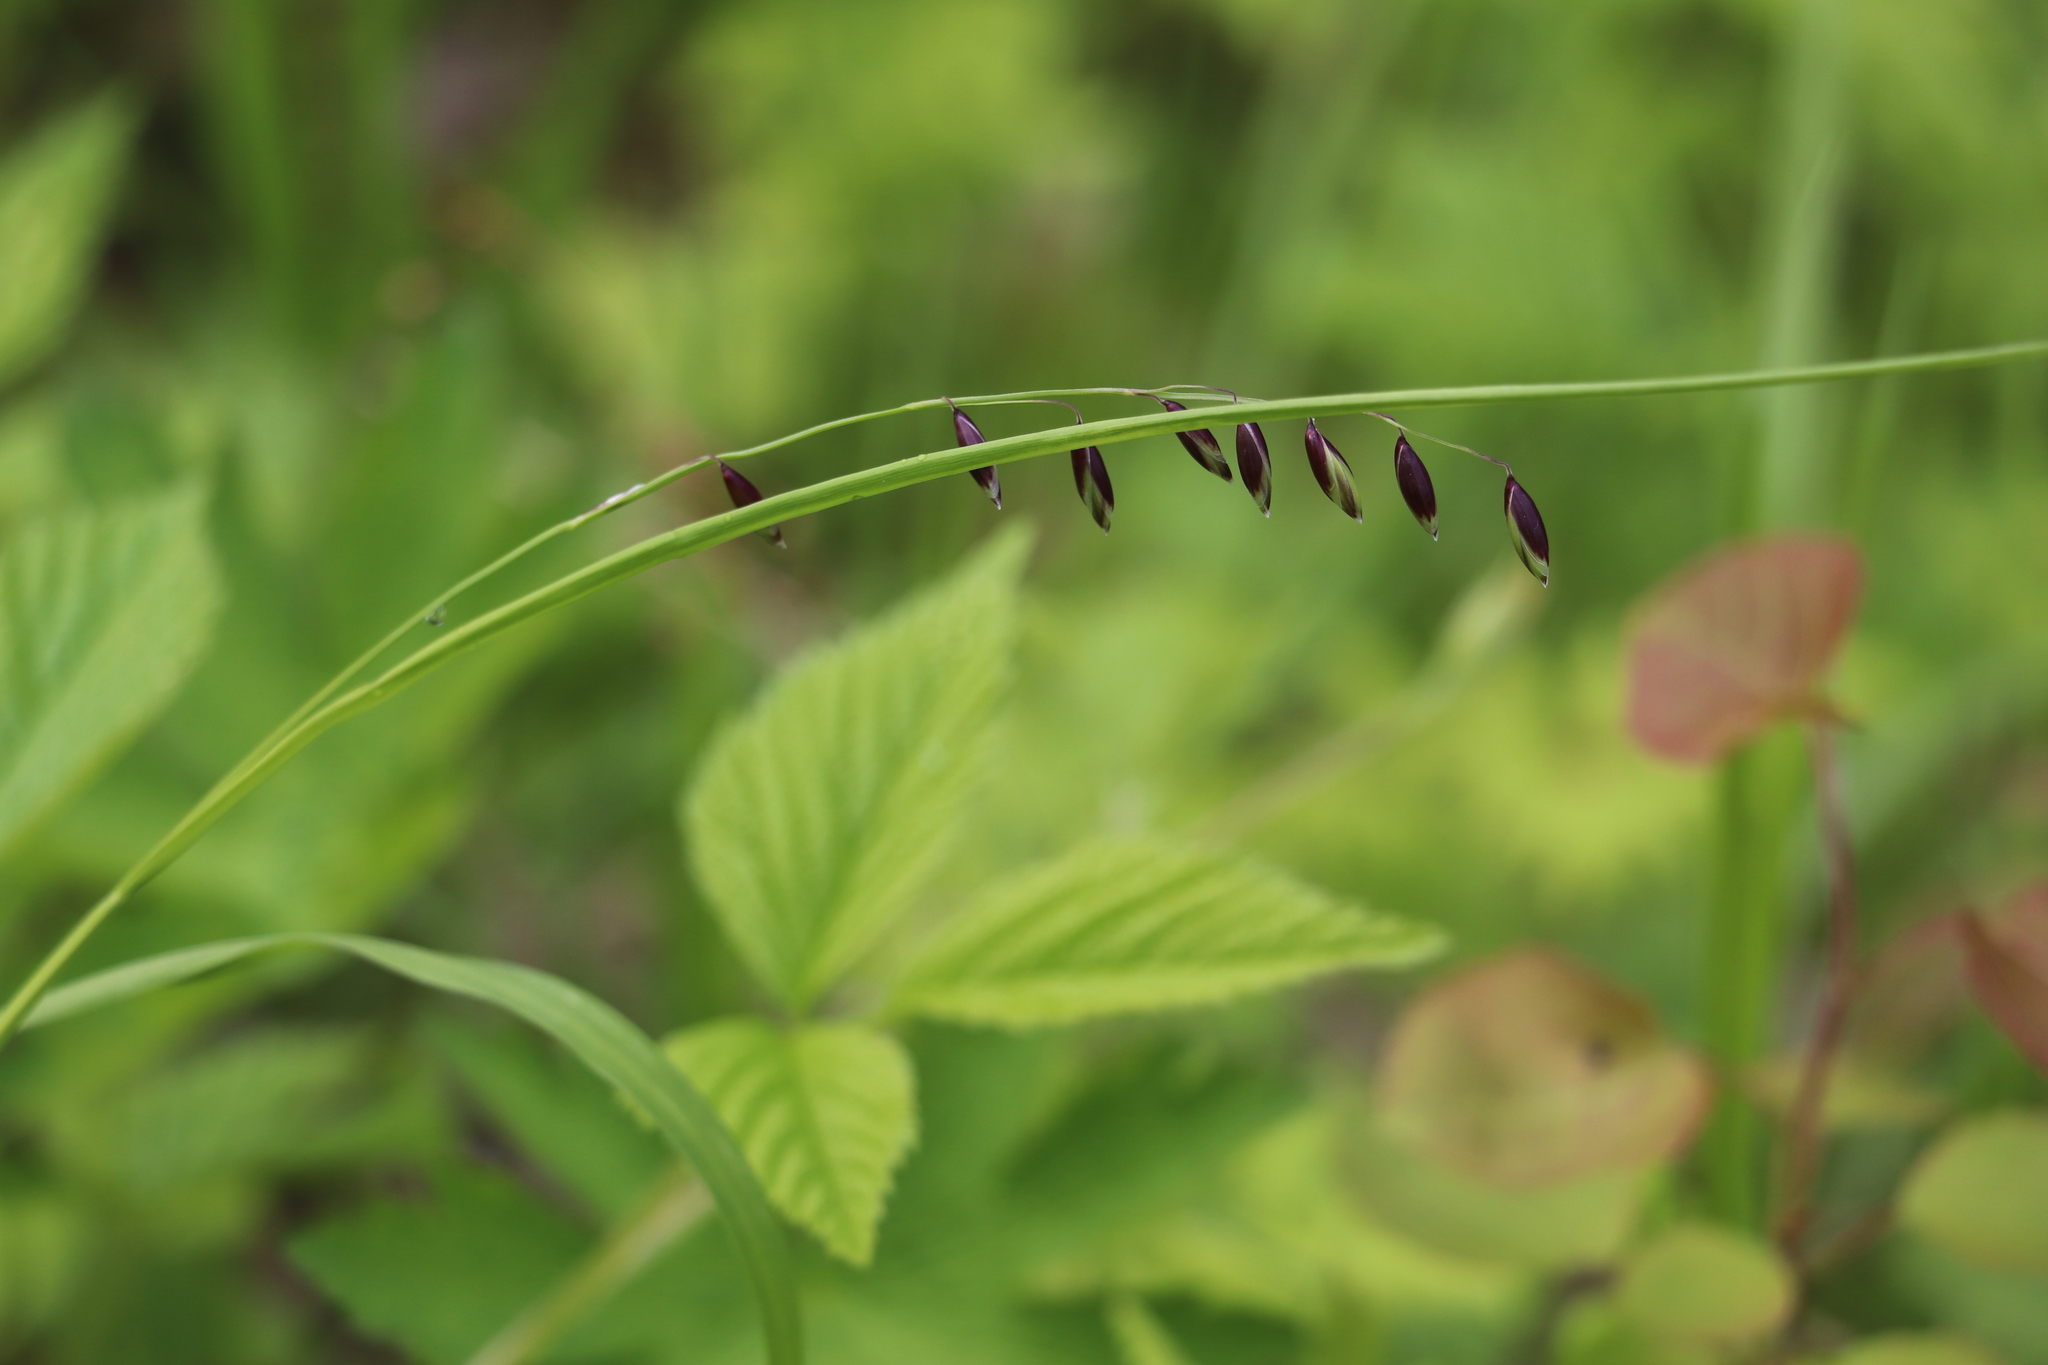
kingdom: Plantae
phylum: Tracheophyta
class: Liliopsida
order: Poales
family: Poaceae
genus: Melica
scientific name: Melica nutans
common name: Mountain melick
